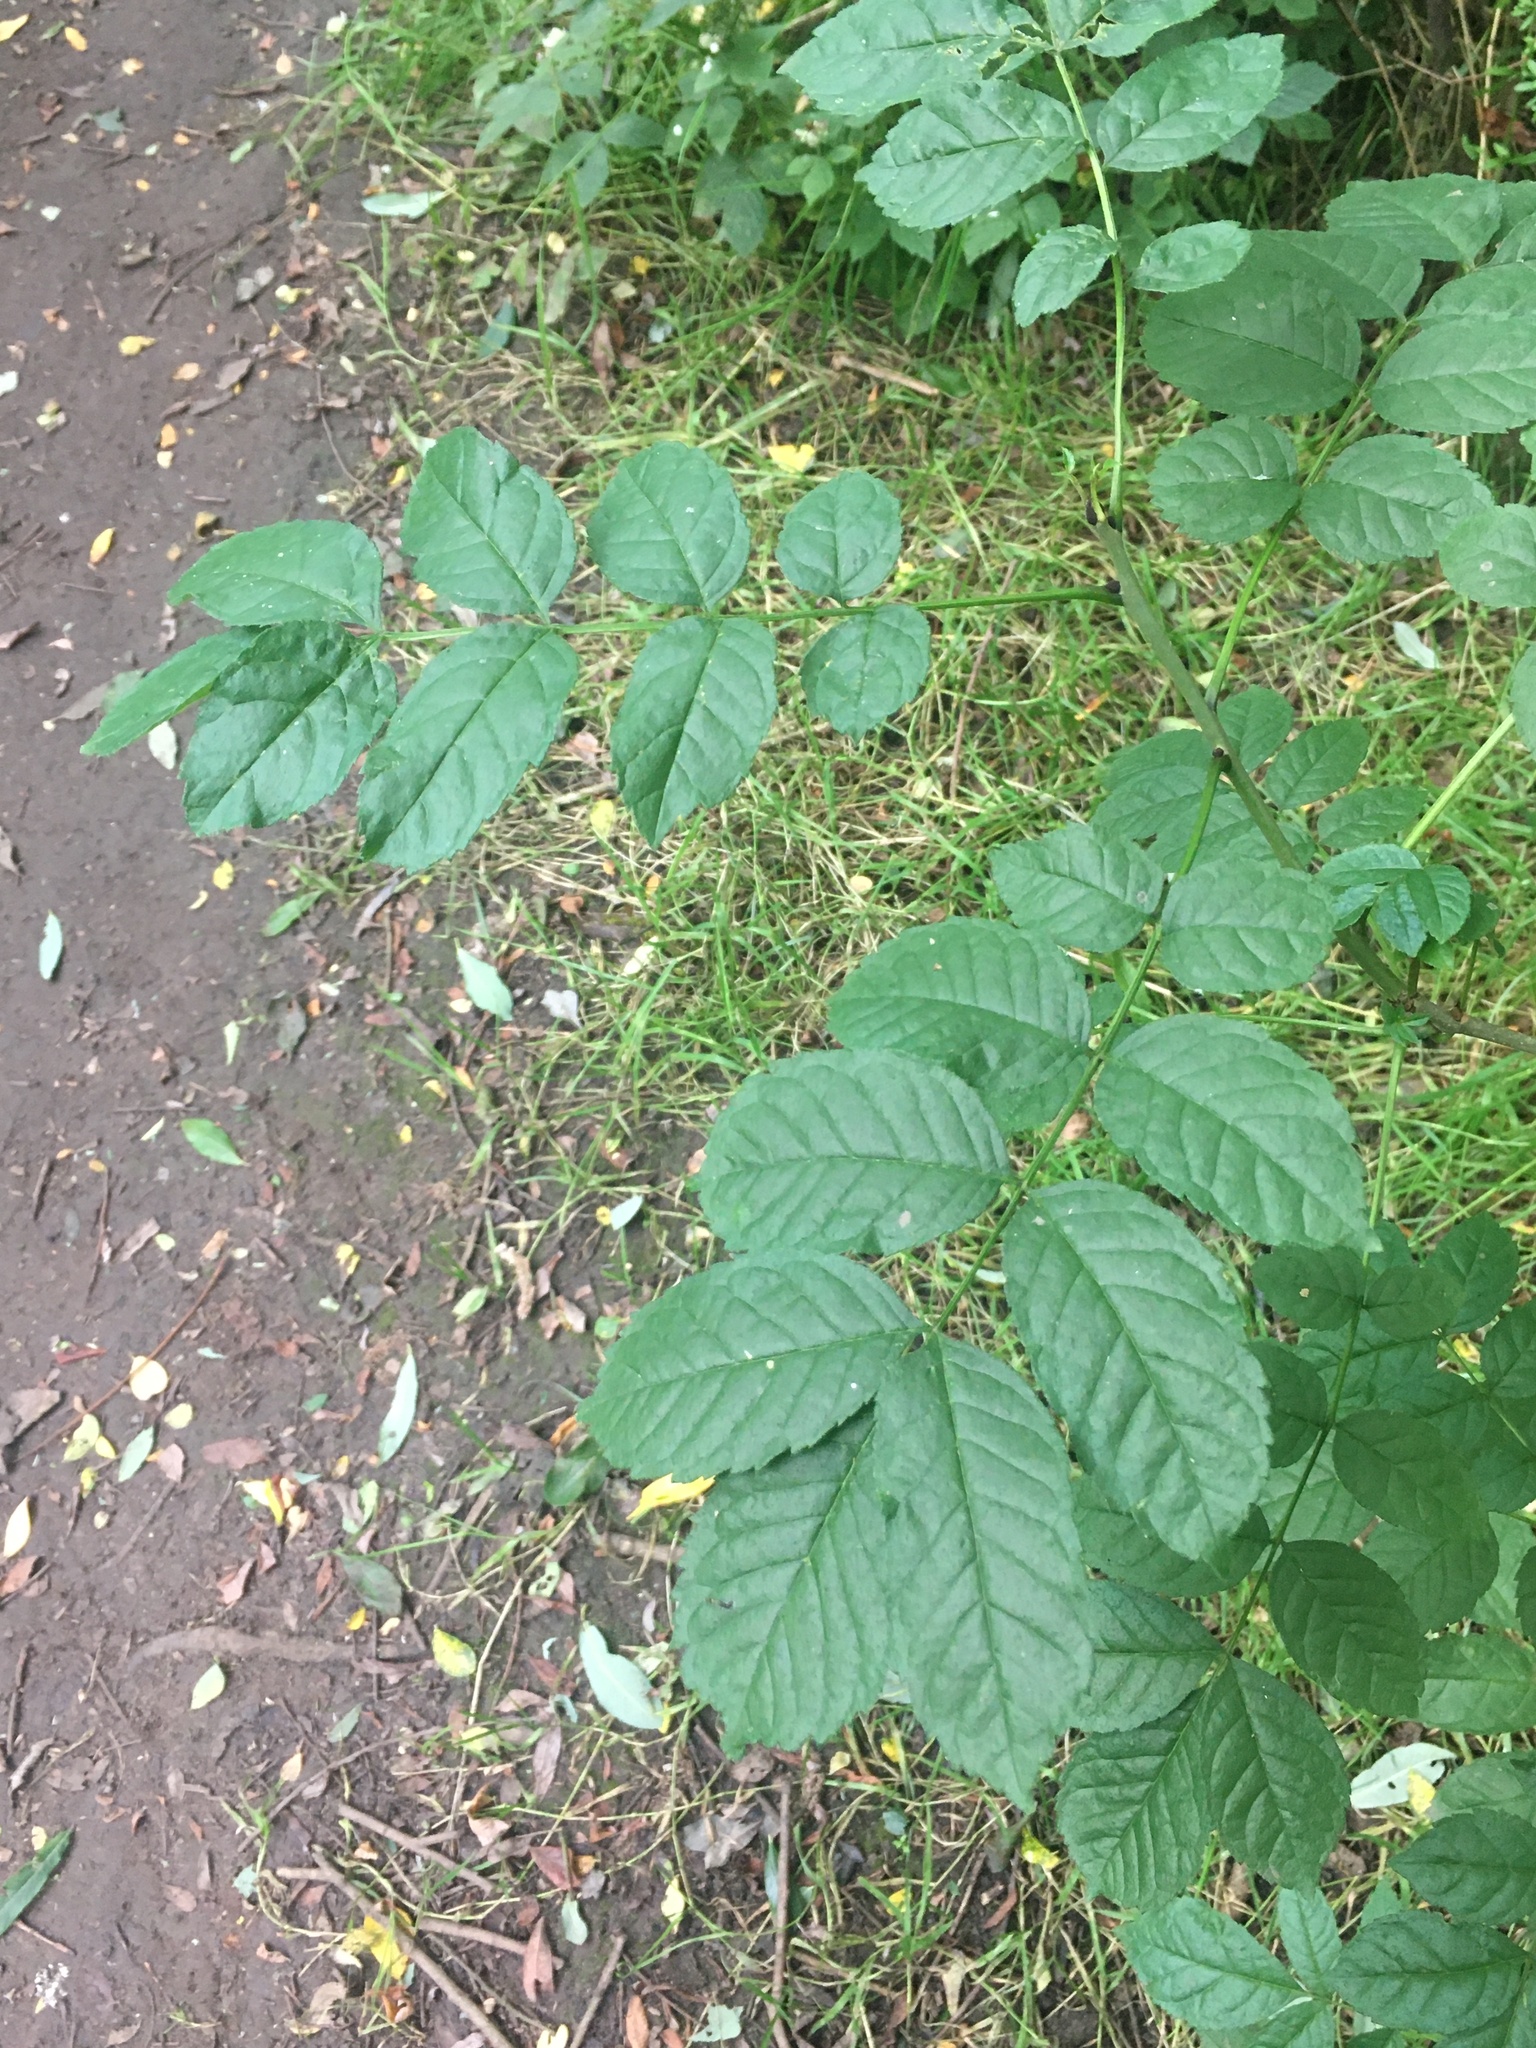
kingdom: Plantae
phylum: Tracheophyta
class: Magnoliopsida
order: Lamiales
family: Oleaceae
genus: Fraxinus
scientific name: Fraxinus excelsior
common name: European ash
